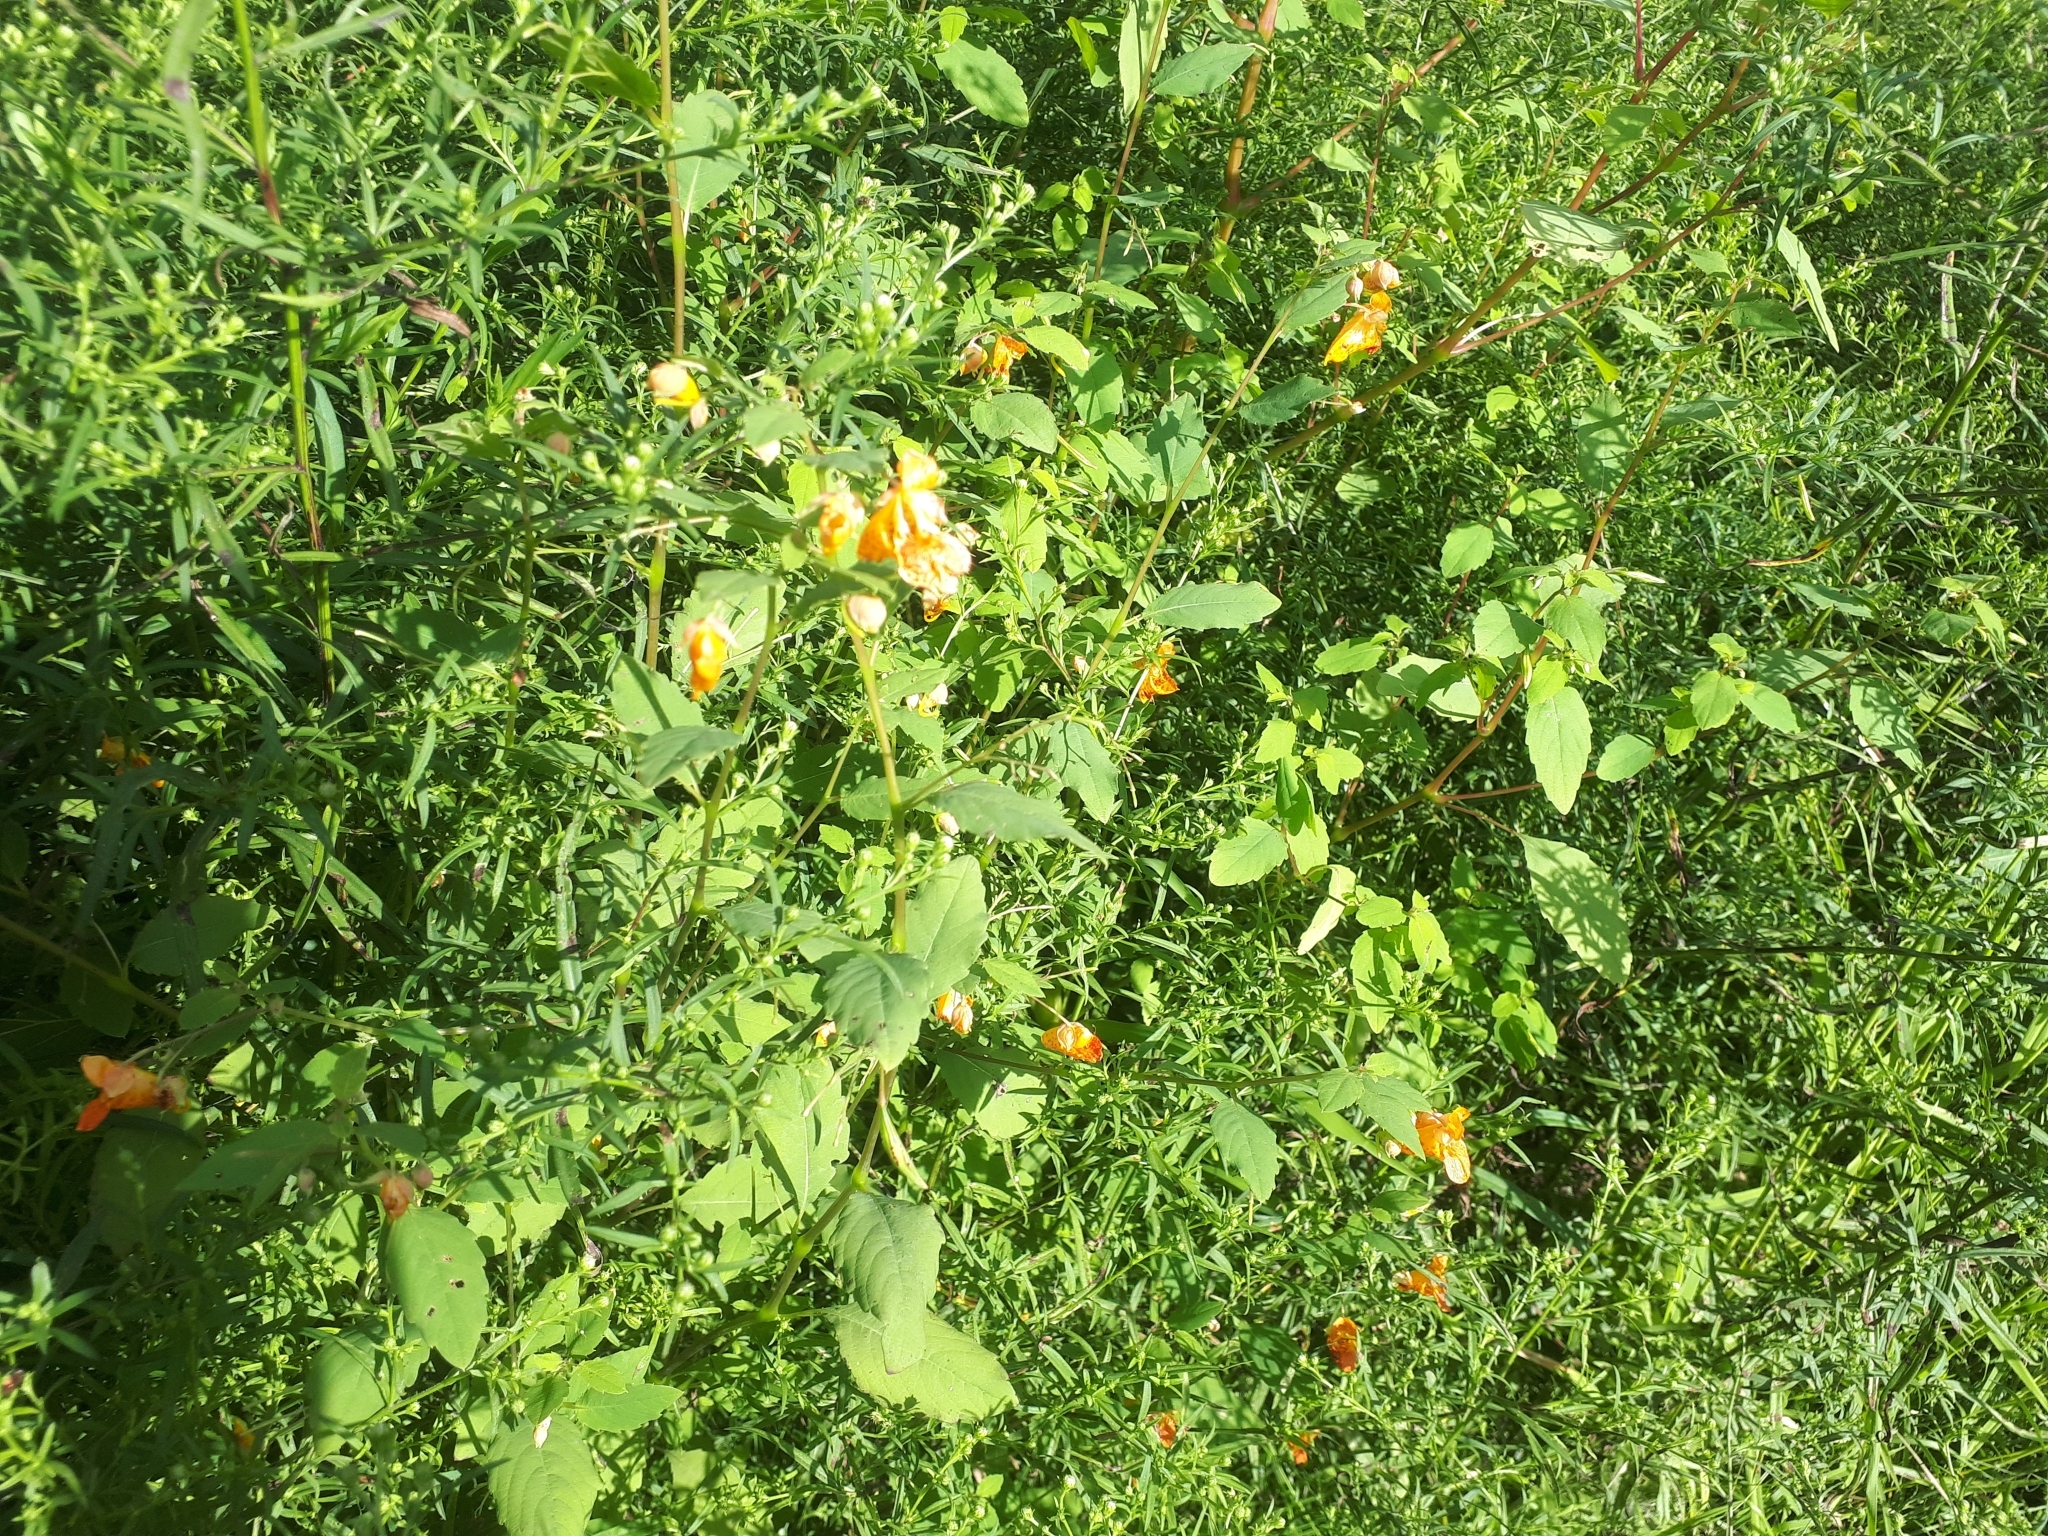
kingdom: Plantae
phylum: Tracheophyta
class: Magnoliopsida
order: Ericales
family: Balsaminaceae
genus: Impatiens
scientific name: Impatiens capensis
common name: Orange balsam
